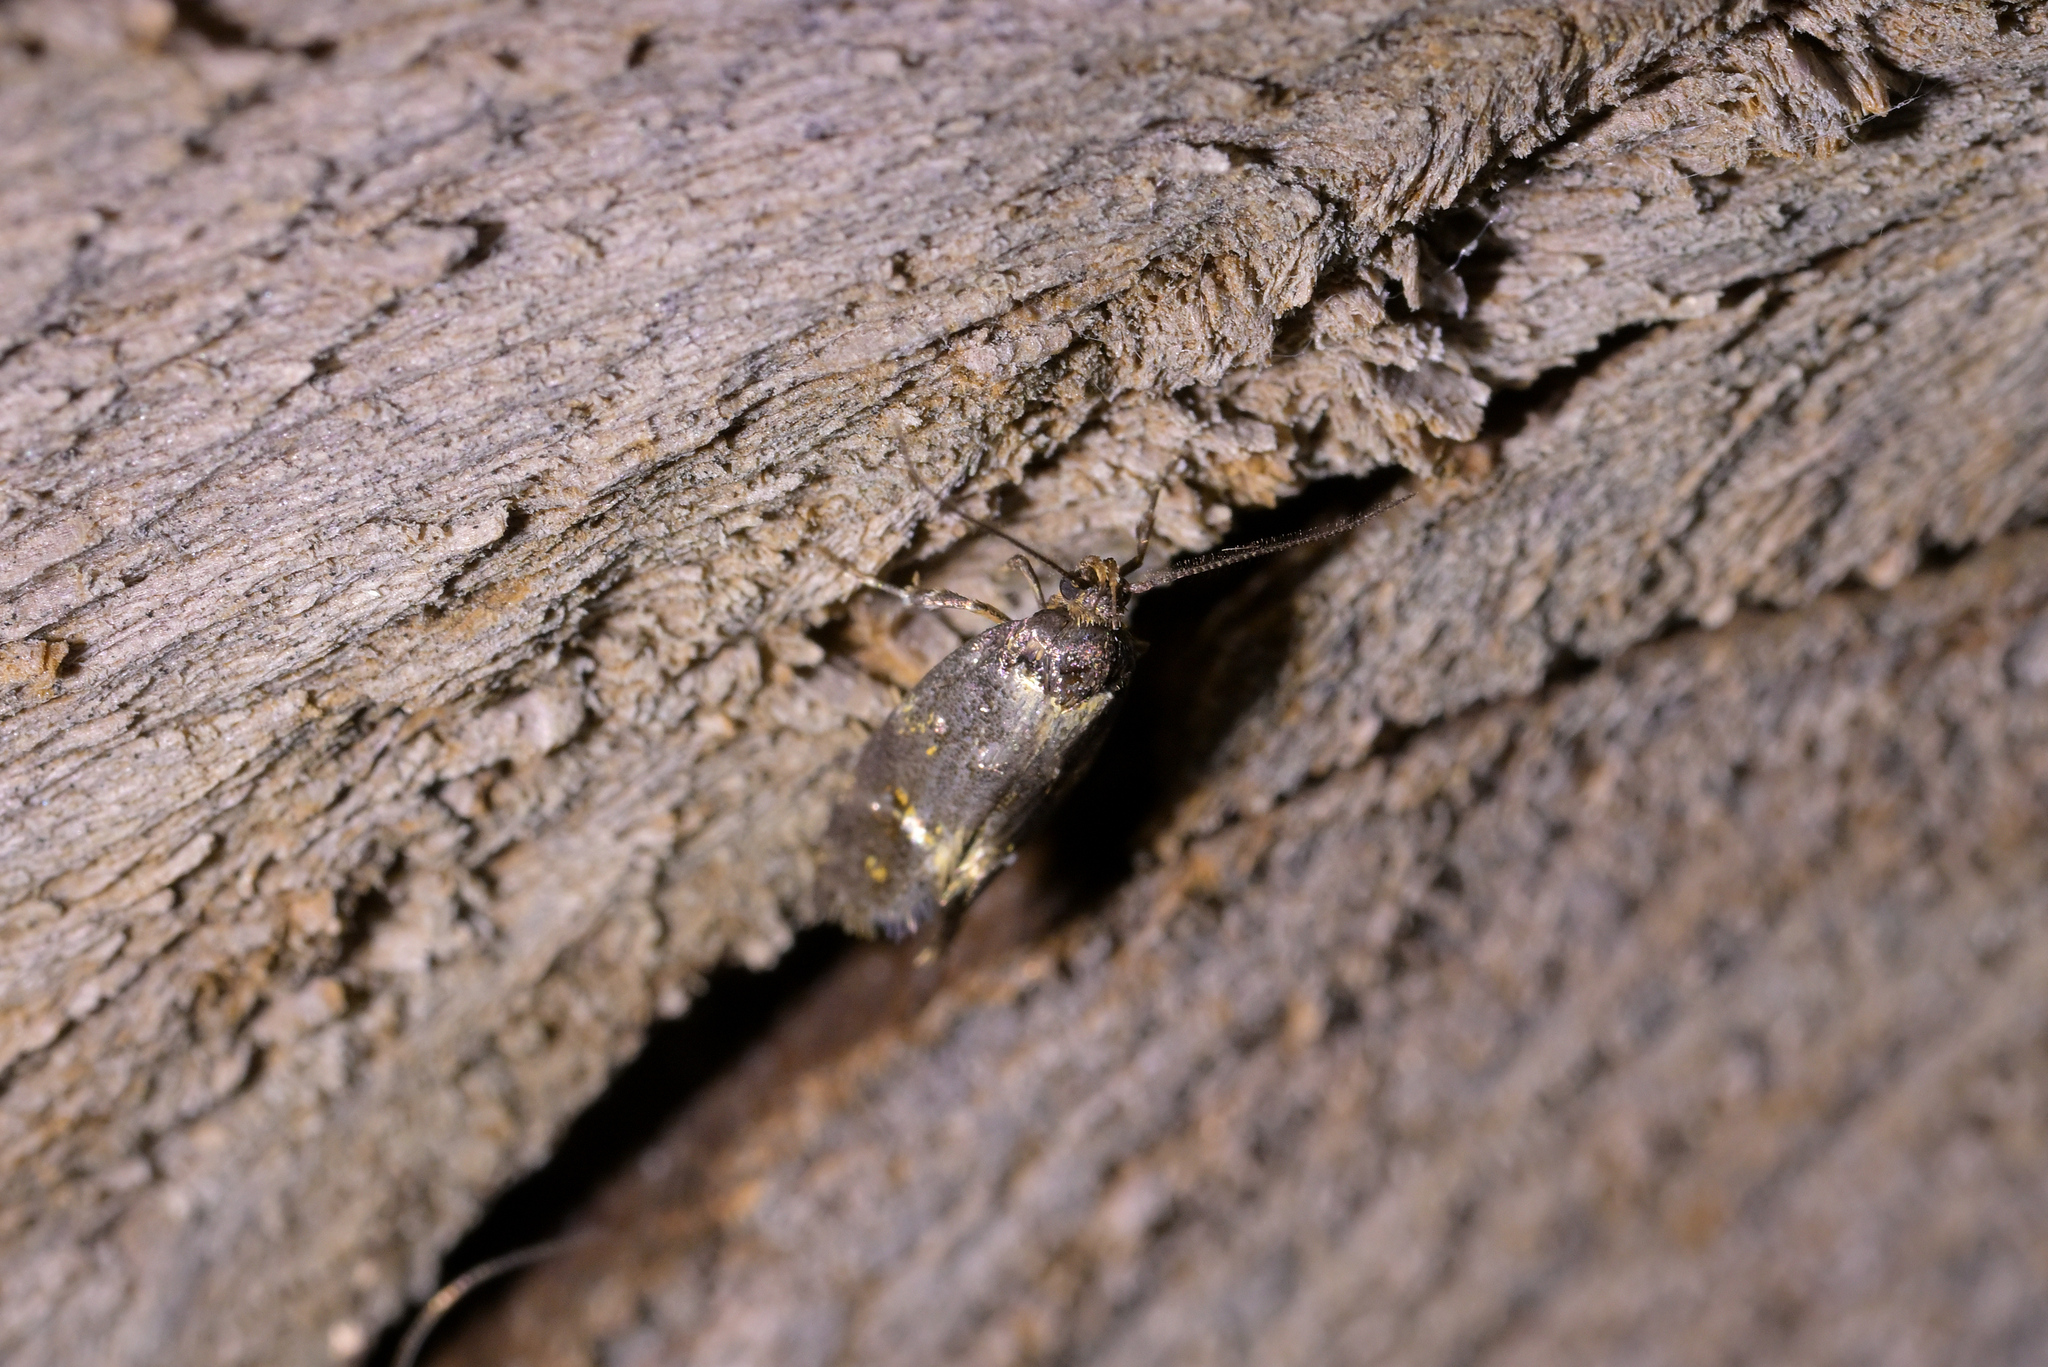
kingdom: Animalia
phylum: Arthropoda
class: Insecta
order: Lepidoptera
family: Oecophoridae
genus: Trachypepla
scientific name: Trachypepla lichenodes
